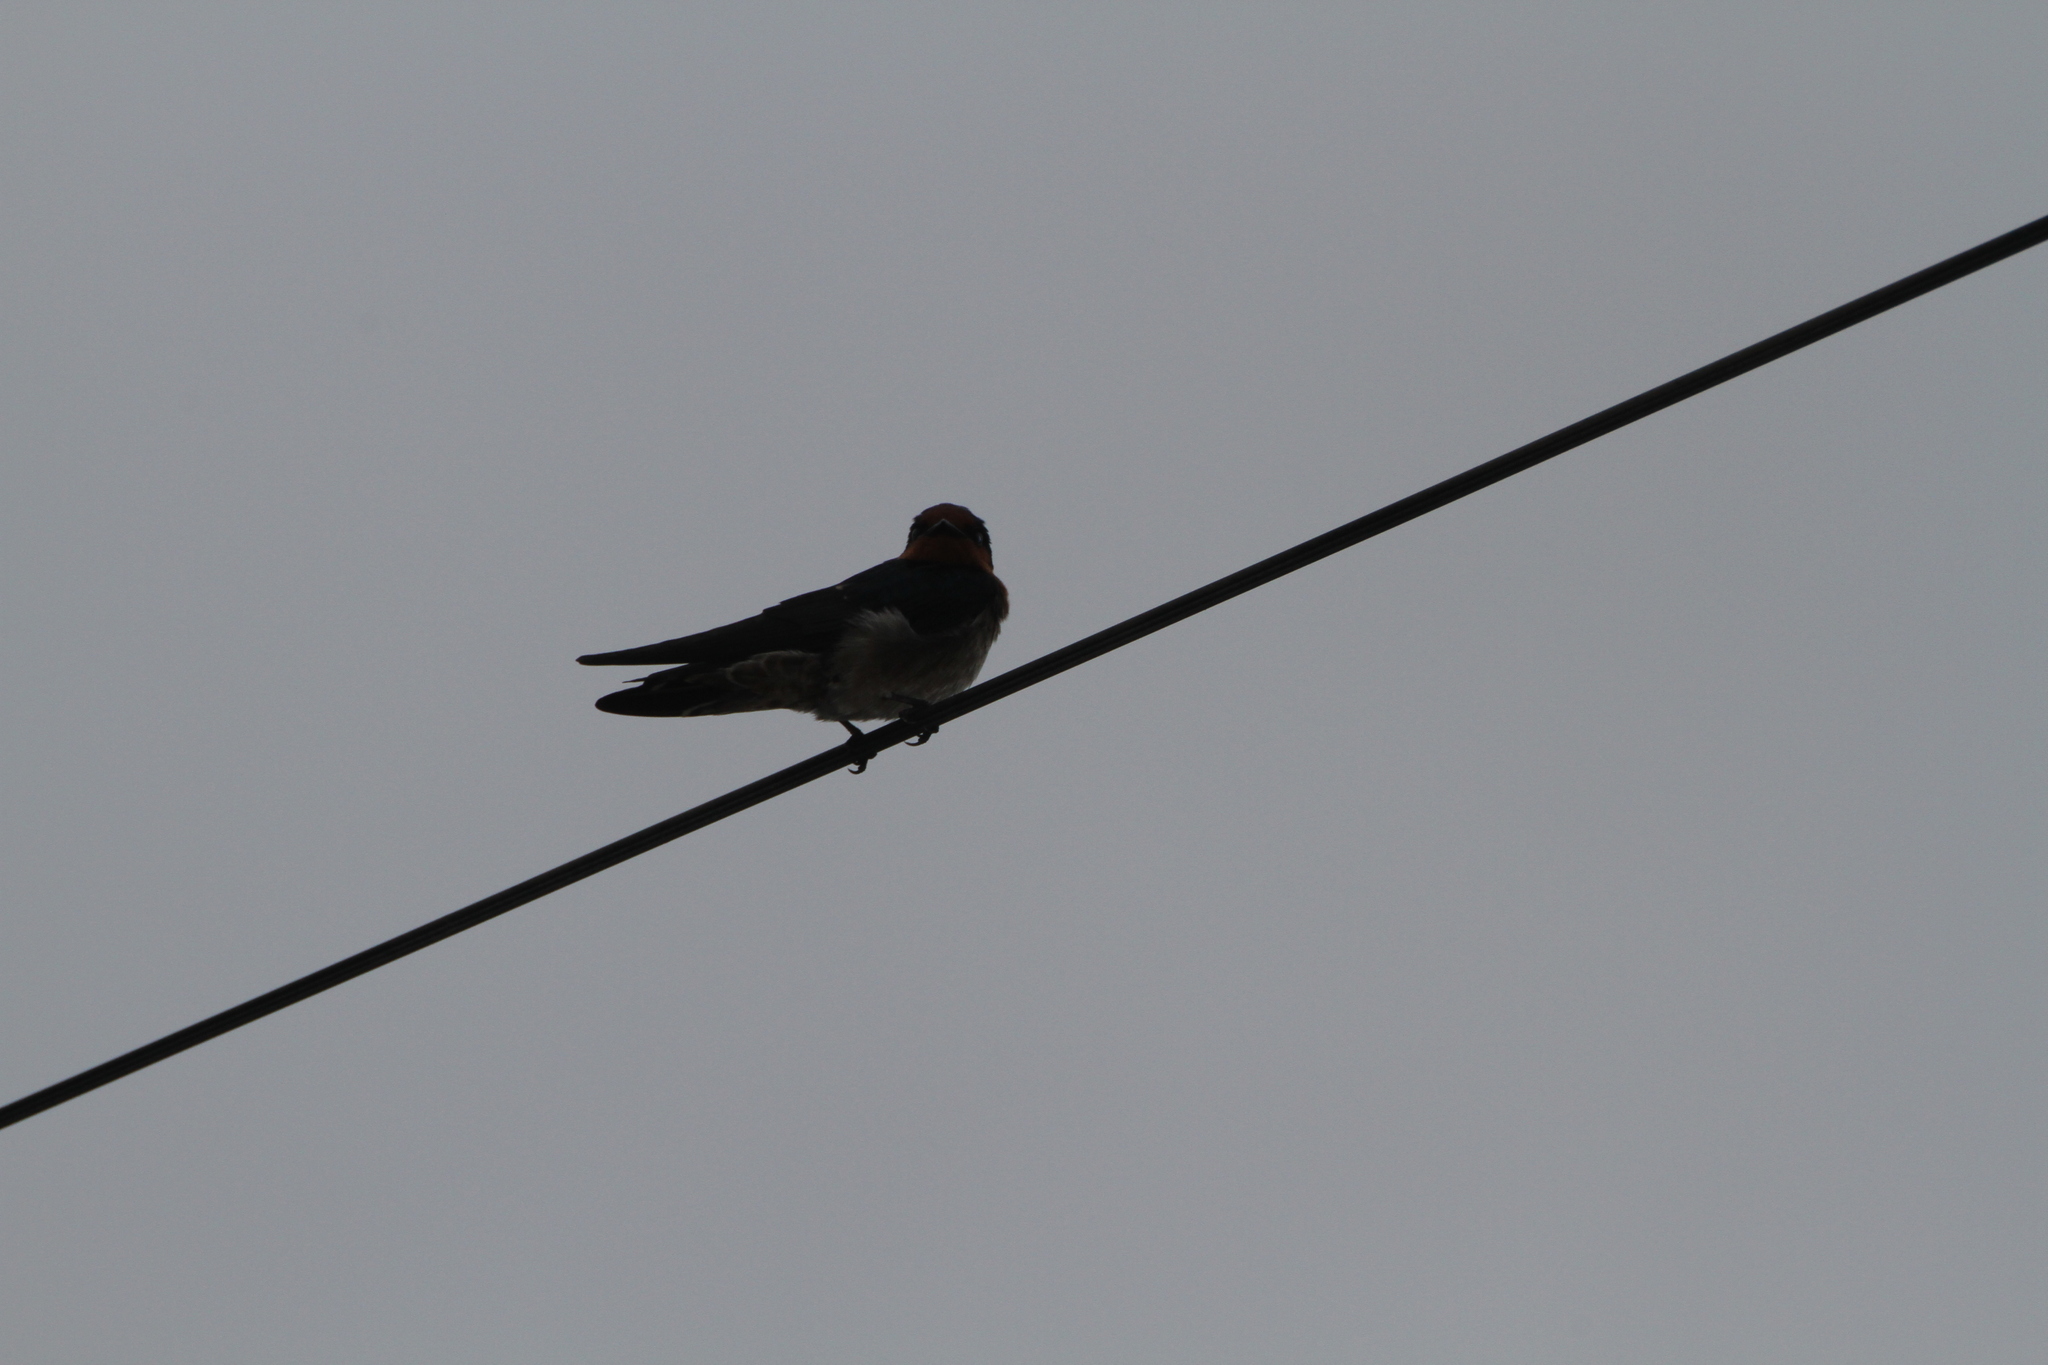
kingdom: Animalia
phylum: Chordata
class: Aves
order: Passeriformes
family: Hirundinidae
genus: Hirundo
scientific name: Hirundo tahitica
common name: Pacific swallow
